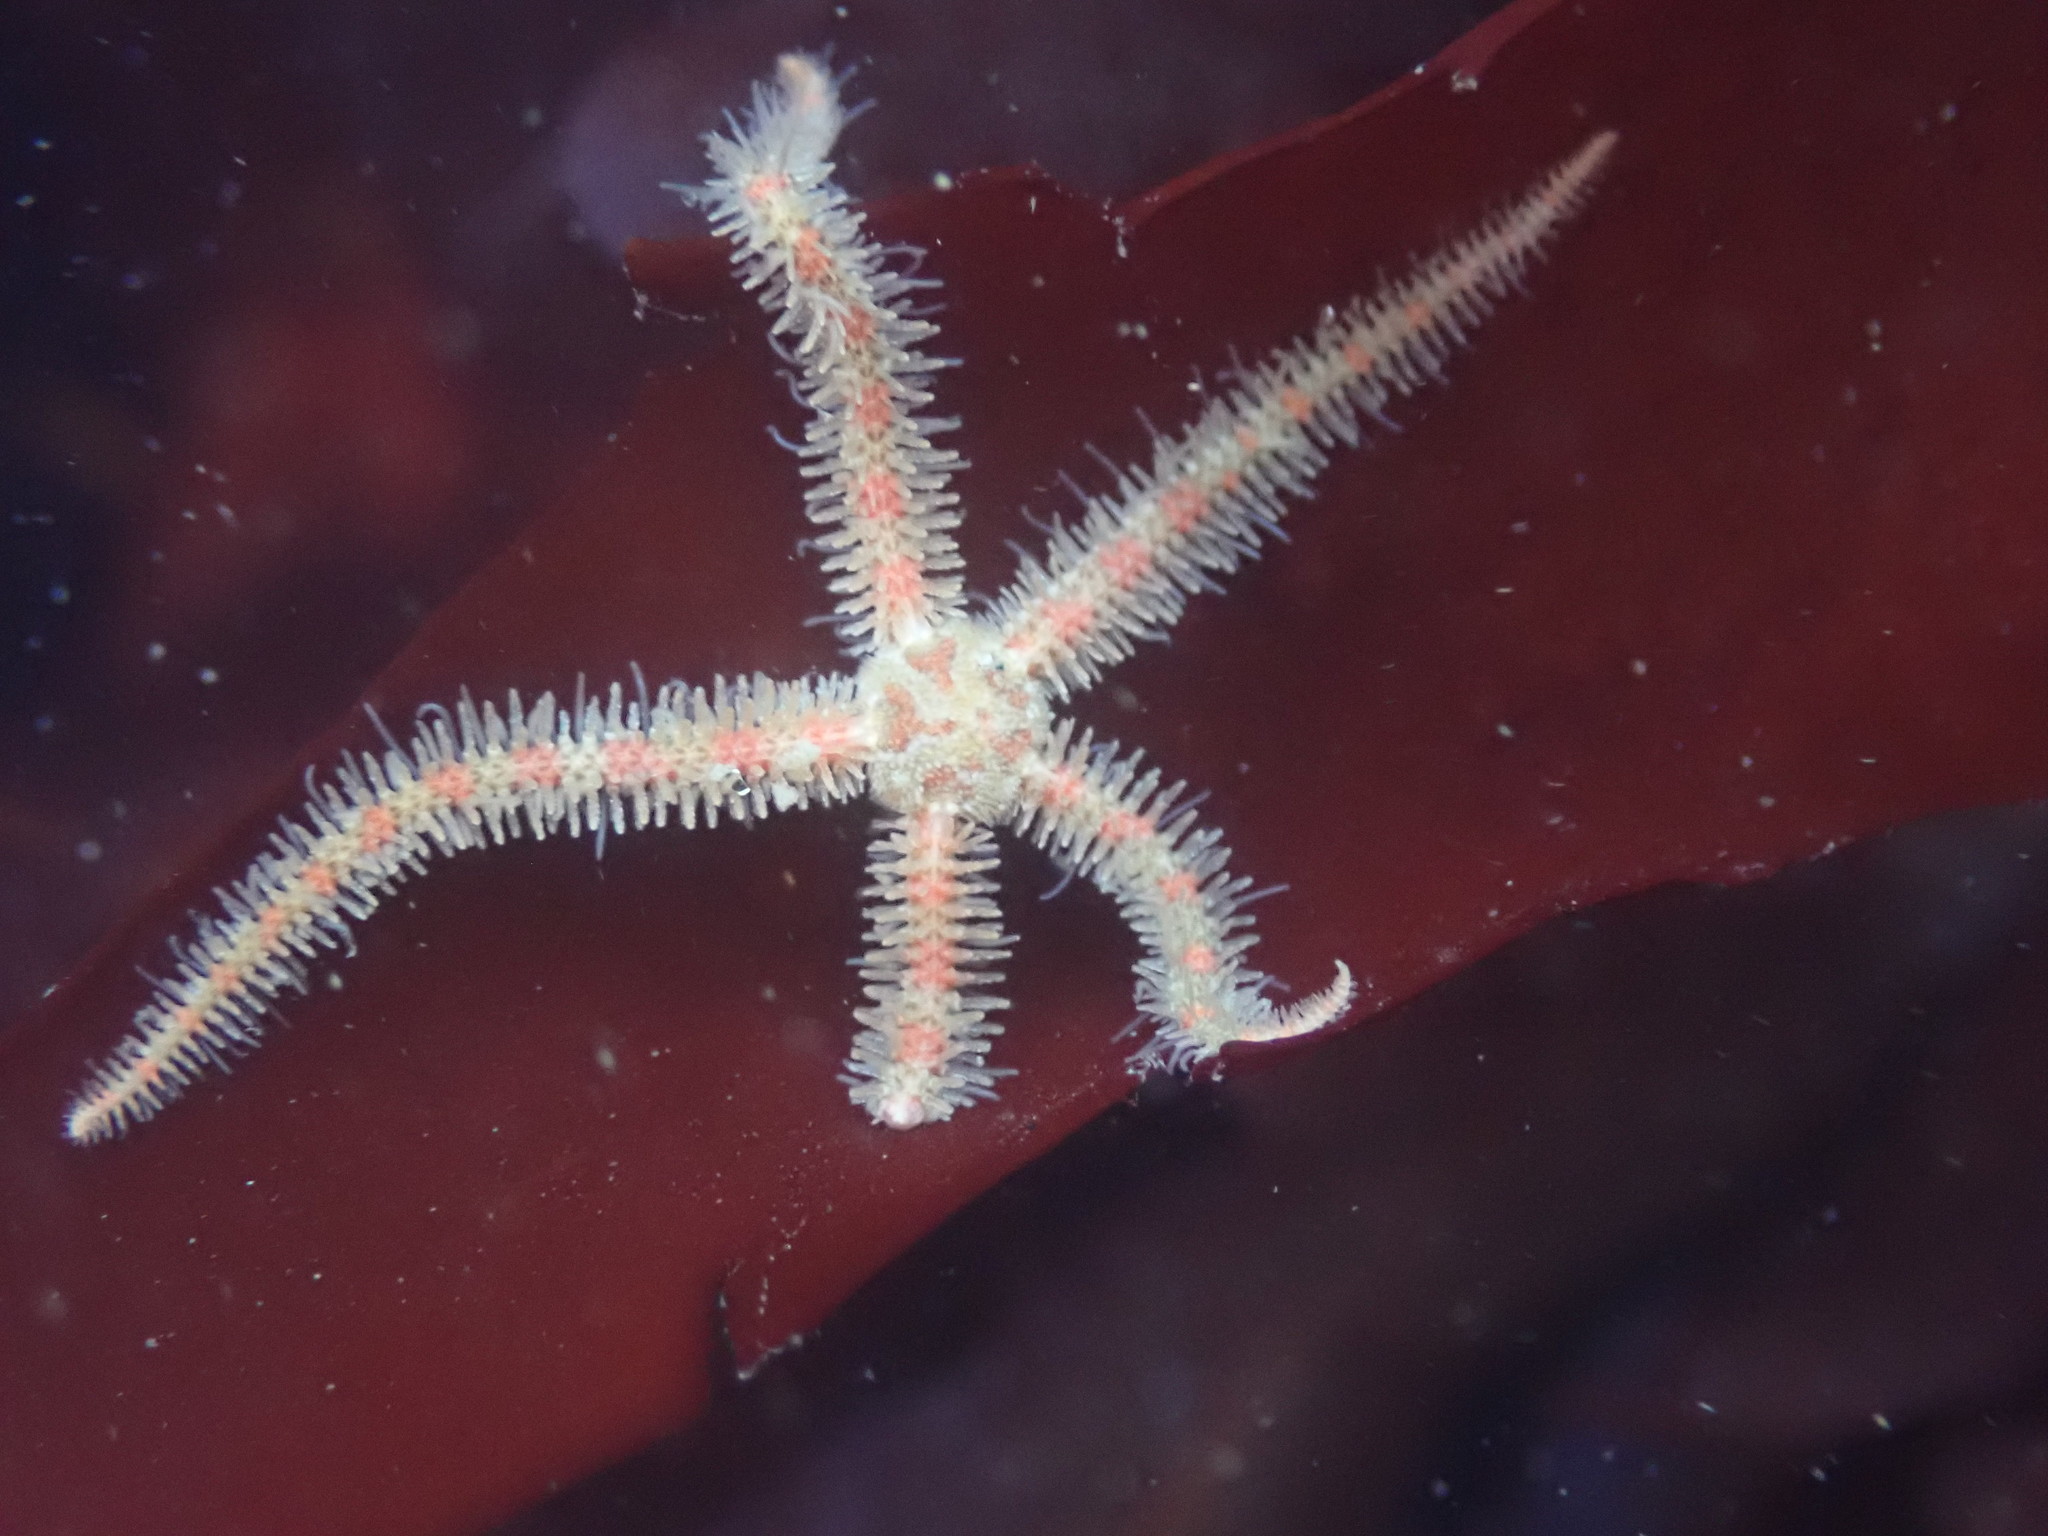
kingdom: Animalia
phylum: Echinodermata
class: Ophiuroidea
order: Amphilepidida
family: Ophiotrichidae
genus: Ophiothrix
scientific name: Ophiothrix spiculata
